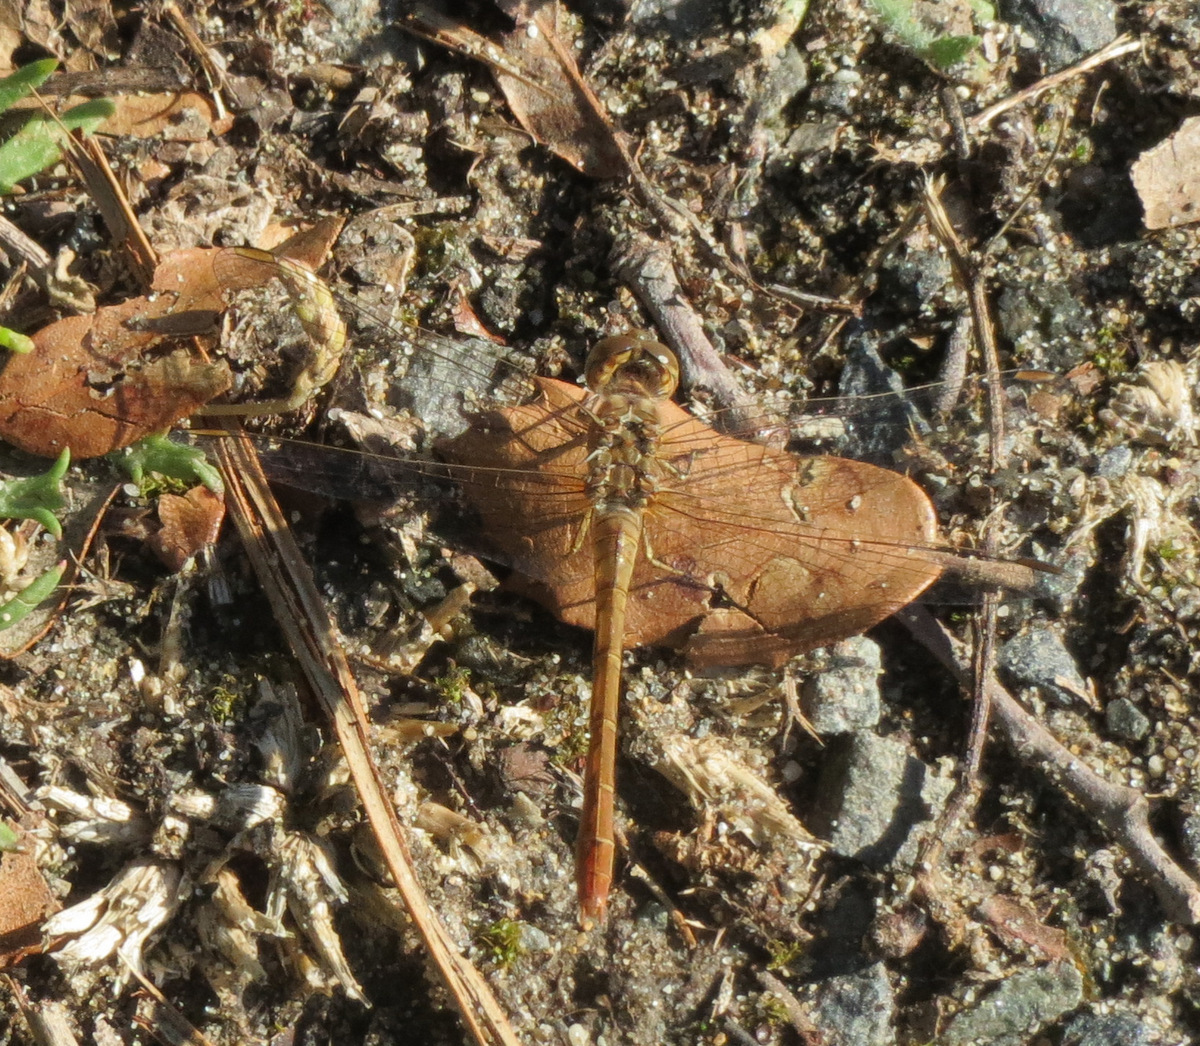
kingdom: Animalia
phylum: Arthropoda
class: Insecta
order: Odonata
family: Libellulidae
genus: Sympetrum
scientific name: Sympetrum meridionale
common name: Southern darter
